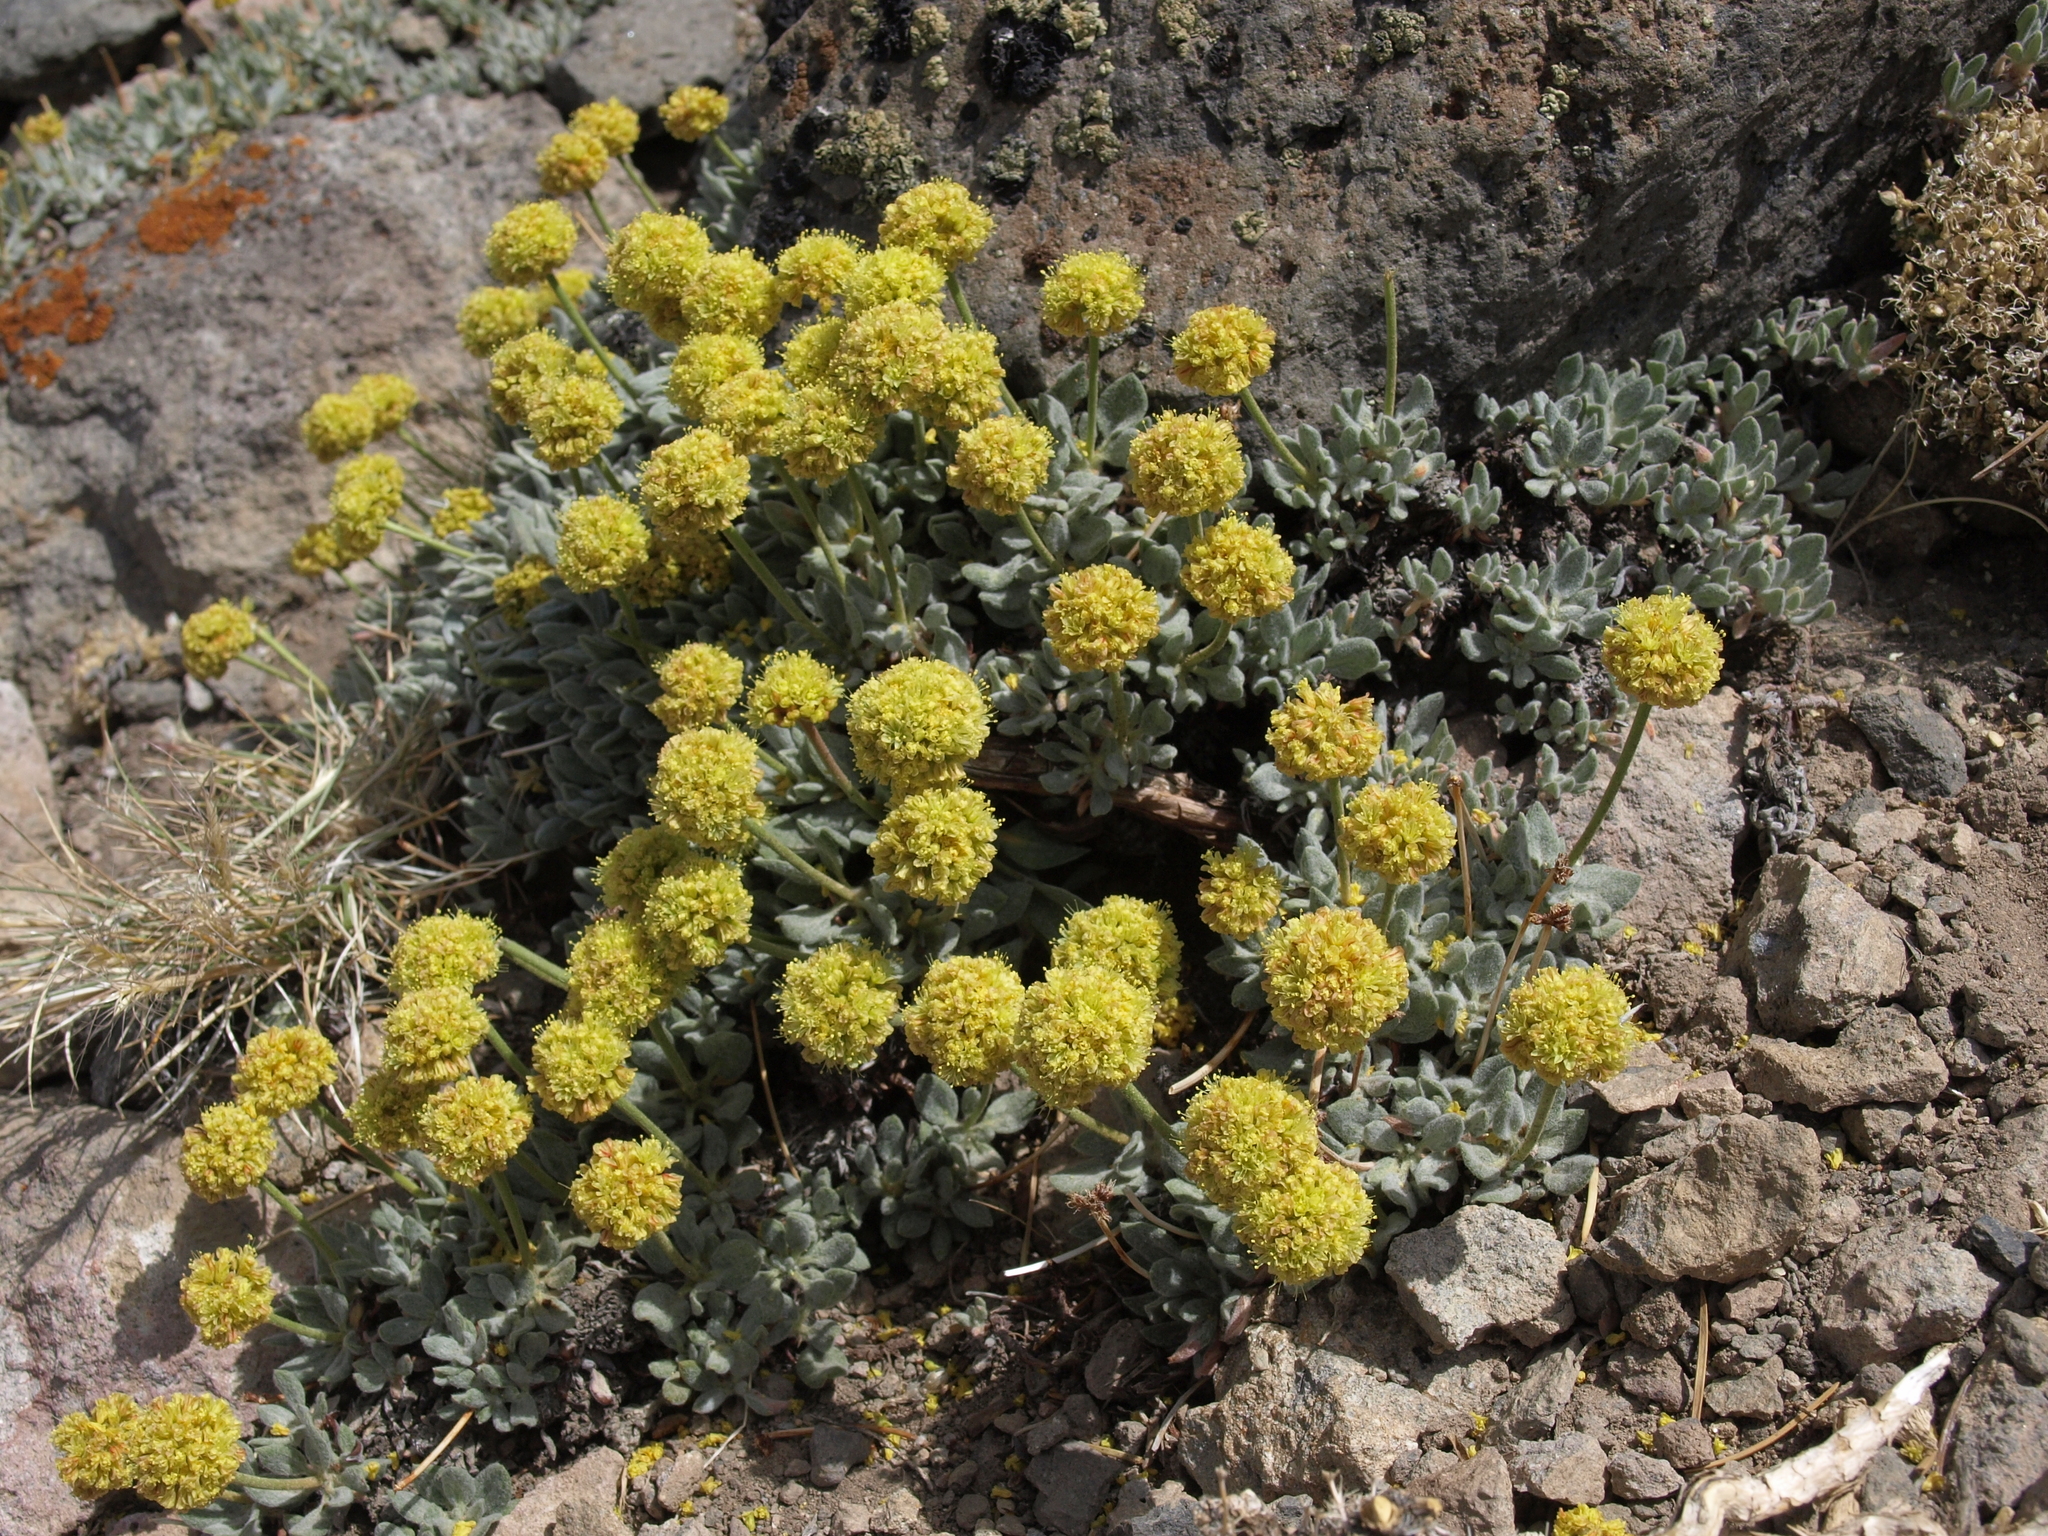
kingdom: Plantae
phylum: Tracheophyta
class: Magnoliopsida
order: Caryophyllales
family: Polygonaceae
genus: Eriogonum
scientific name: Eriogonum rosense
